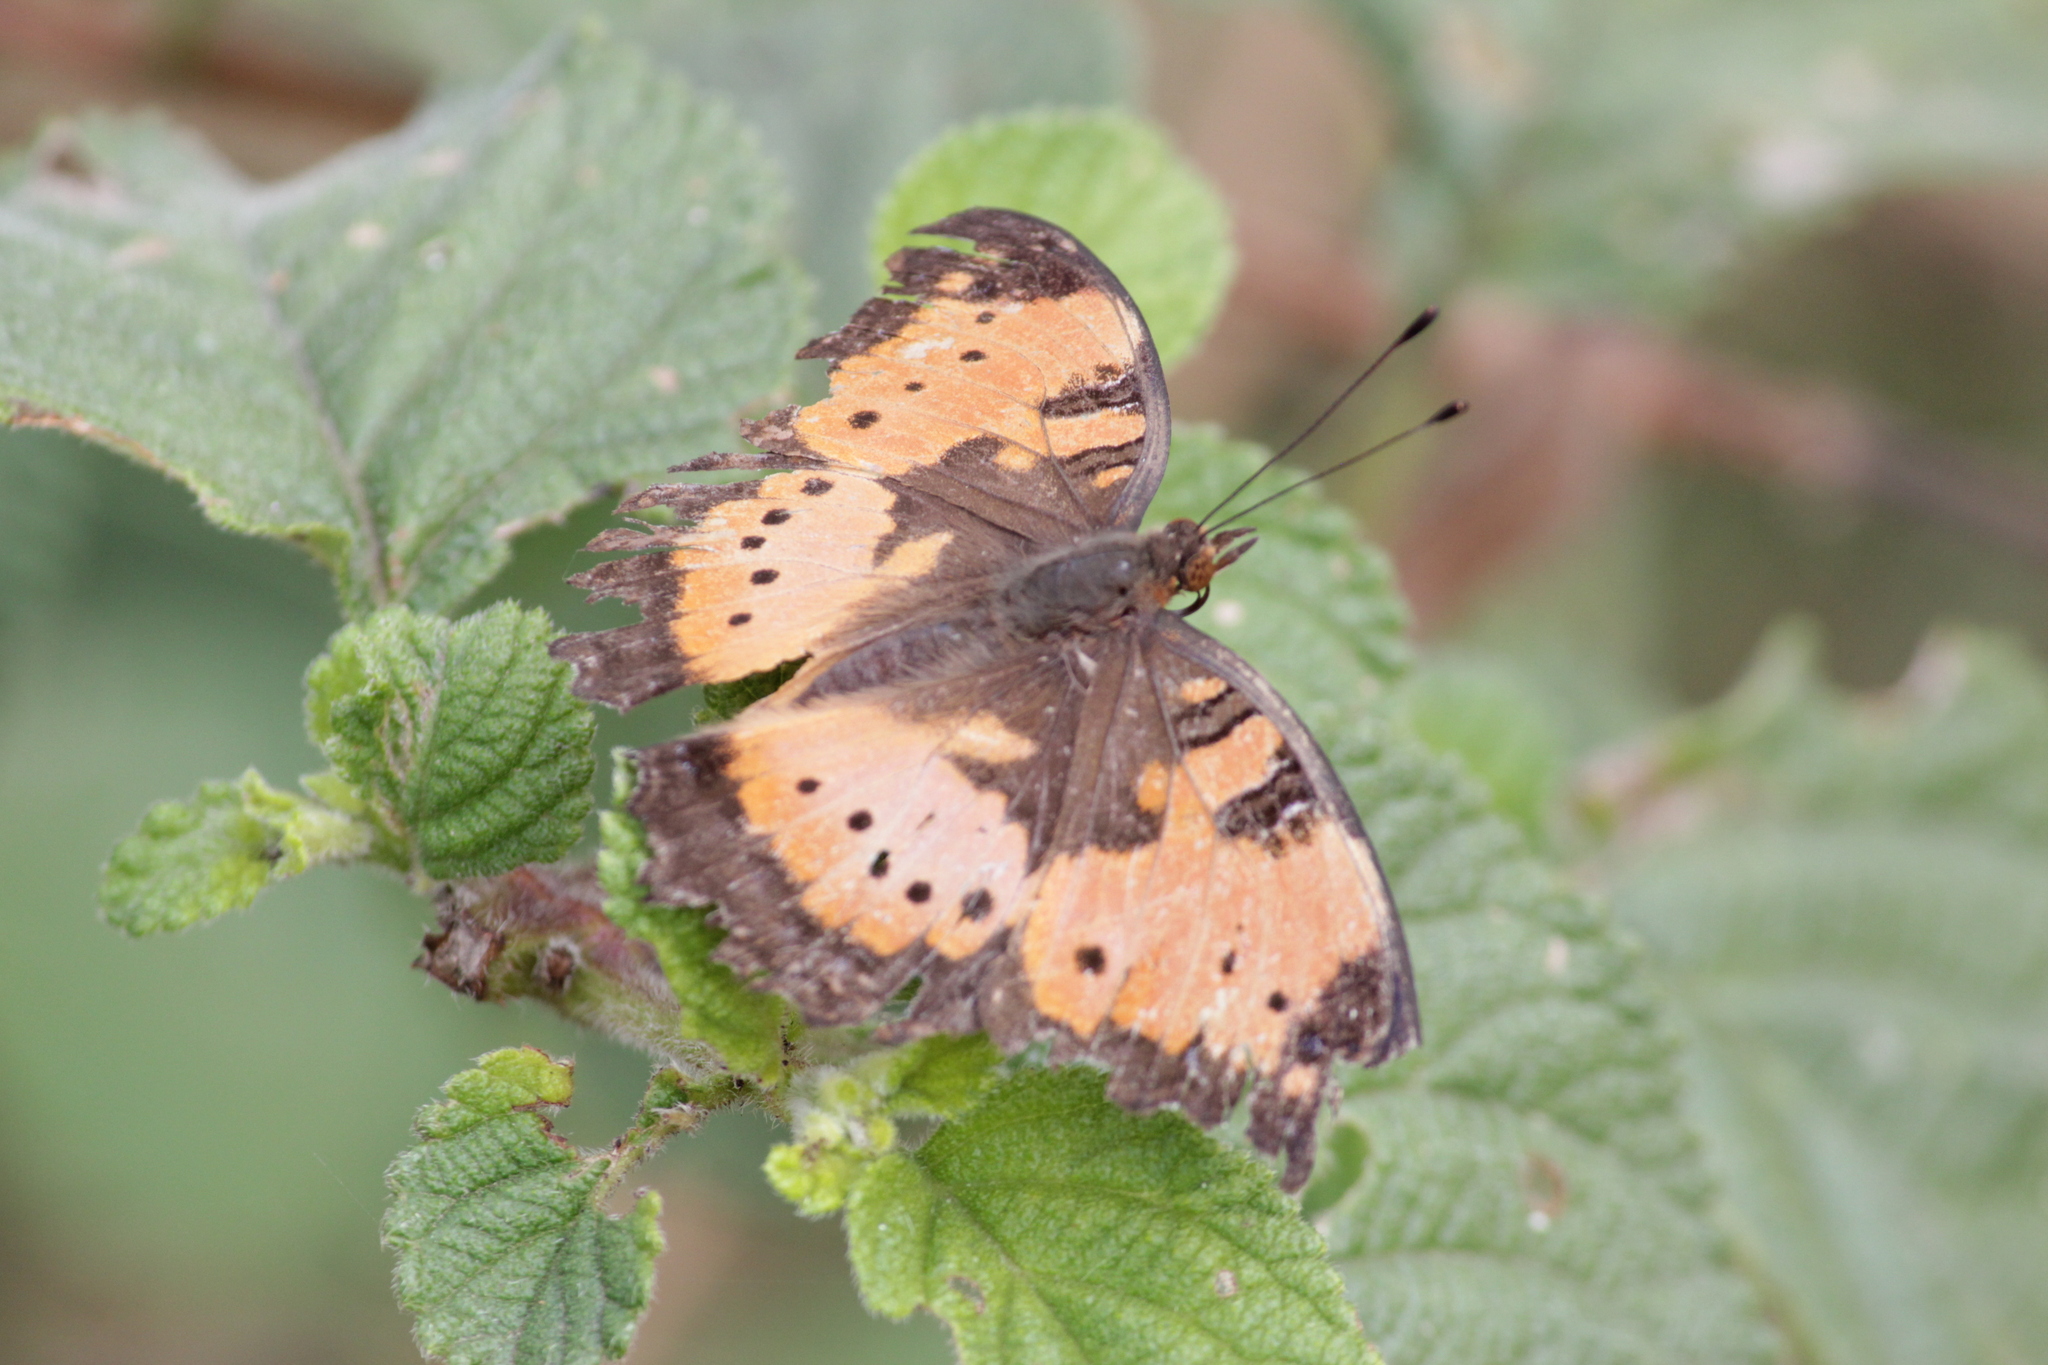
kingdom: Animalia
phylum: Arthropoda
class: Insecta
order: Lepidoptera
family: Nymphalidae
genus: Precis
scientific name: Precis octavia
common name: Gaudy commodore
